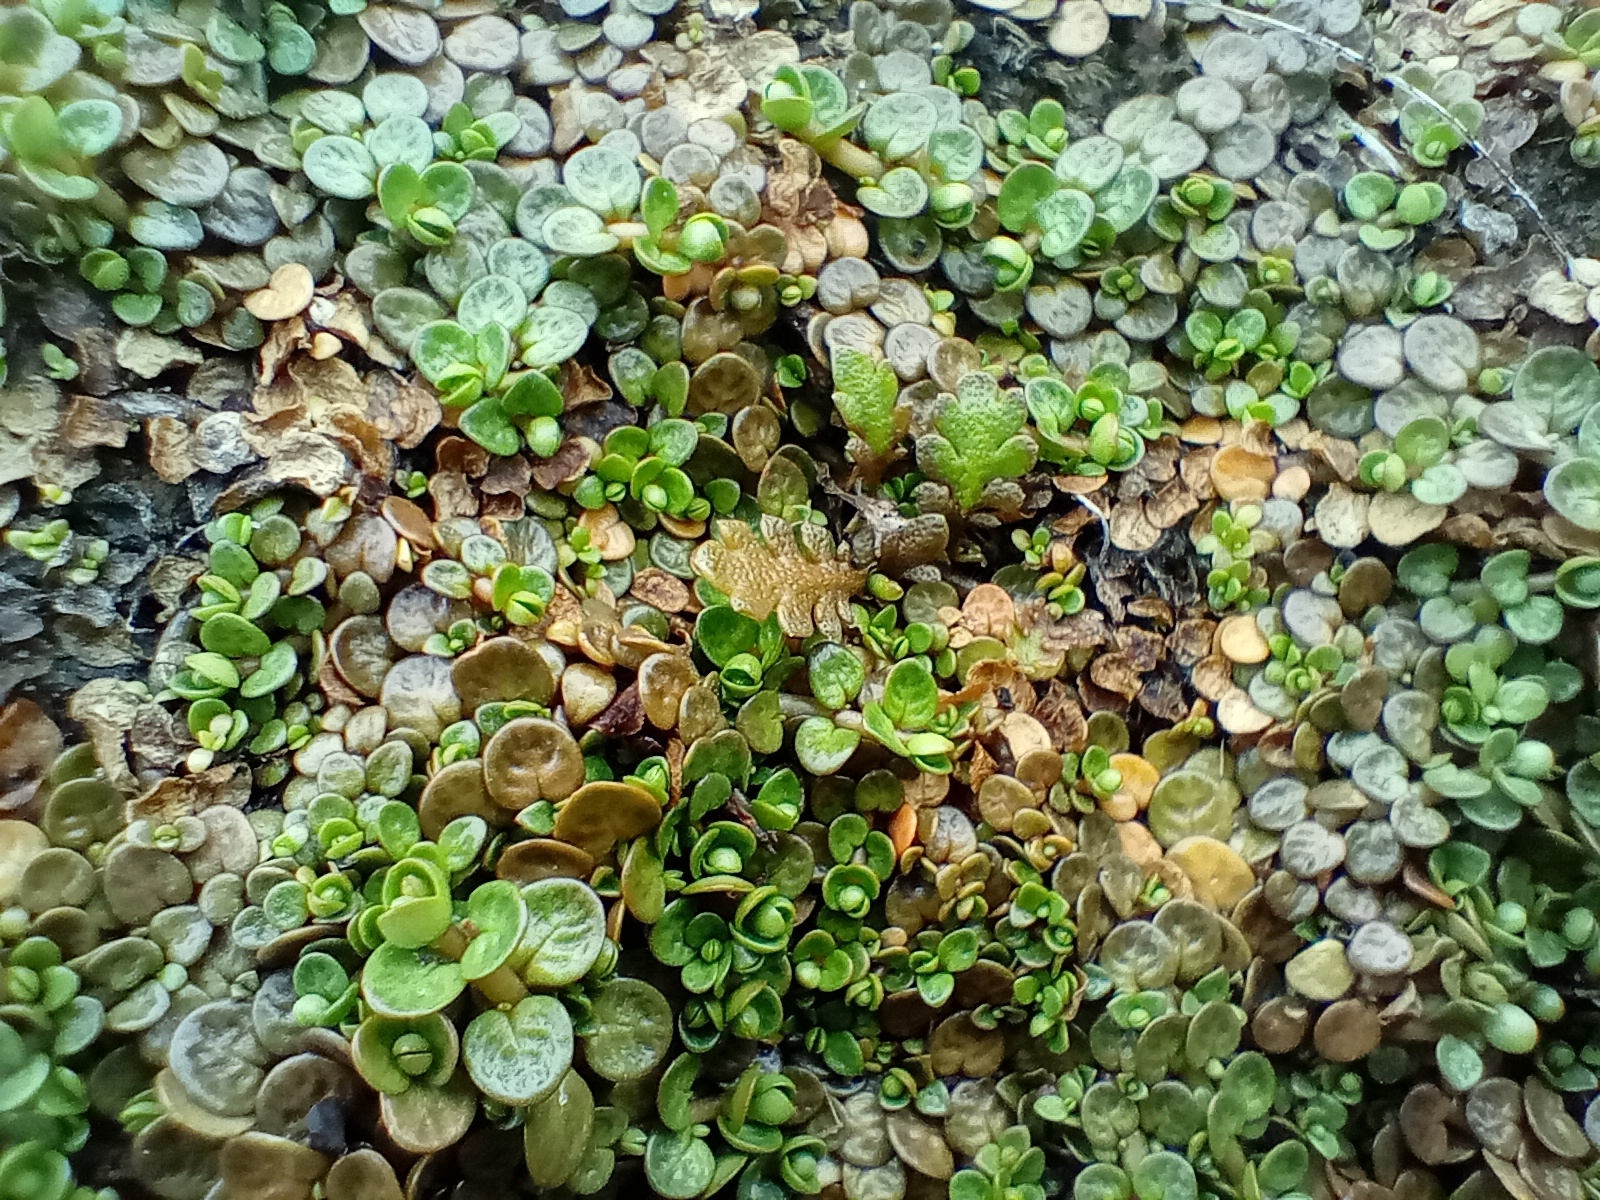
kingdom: Plantae
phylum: Tracheophyta
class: Magnoliopsida
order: Myrtales
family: Onagraceae
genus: Epilobium
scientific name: Epilobium komarovianum
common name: Bronzy willowherb
